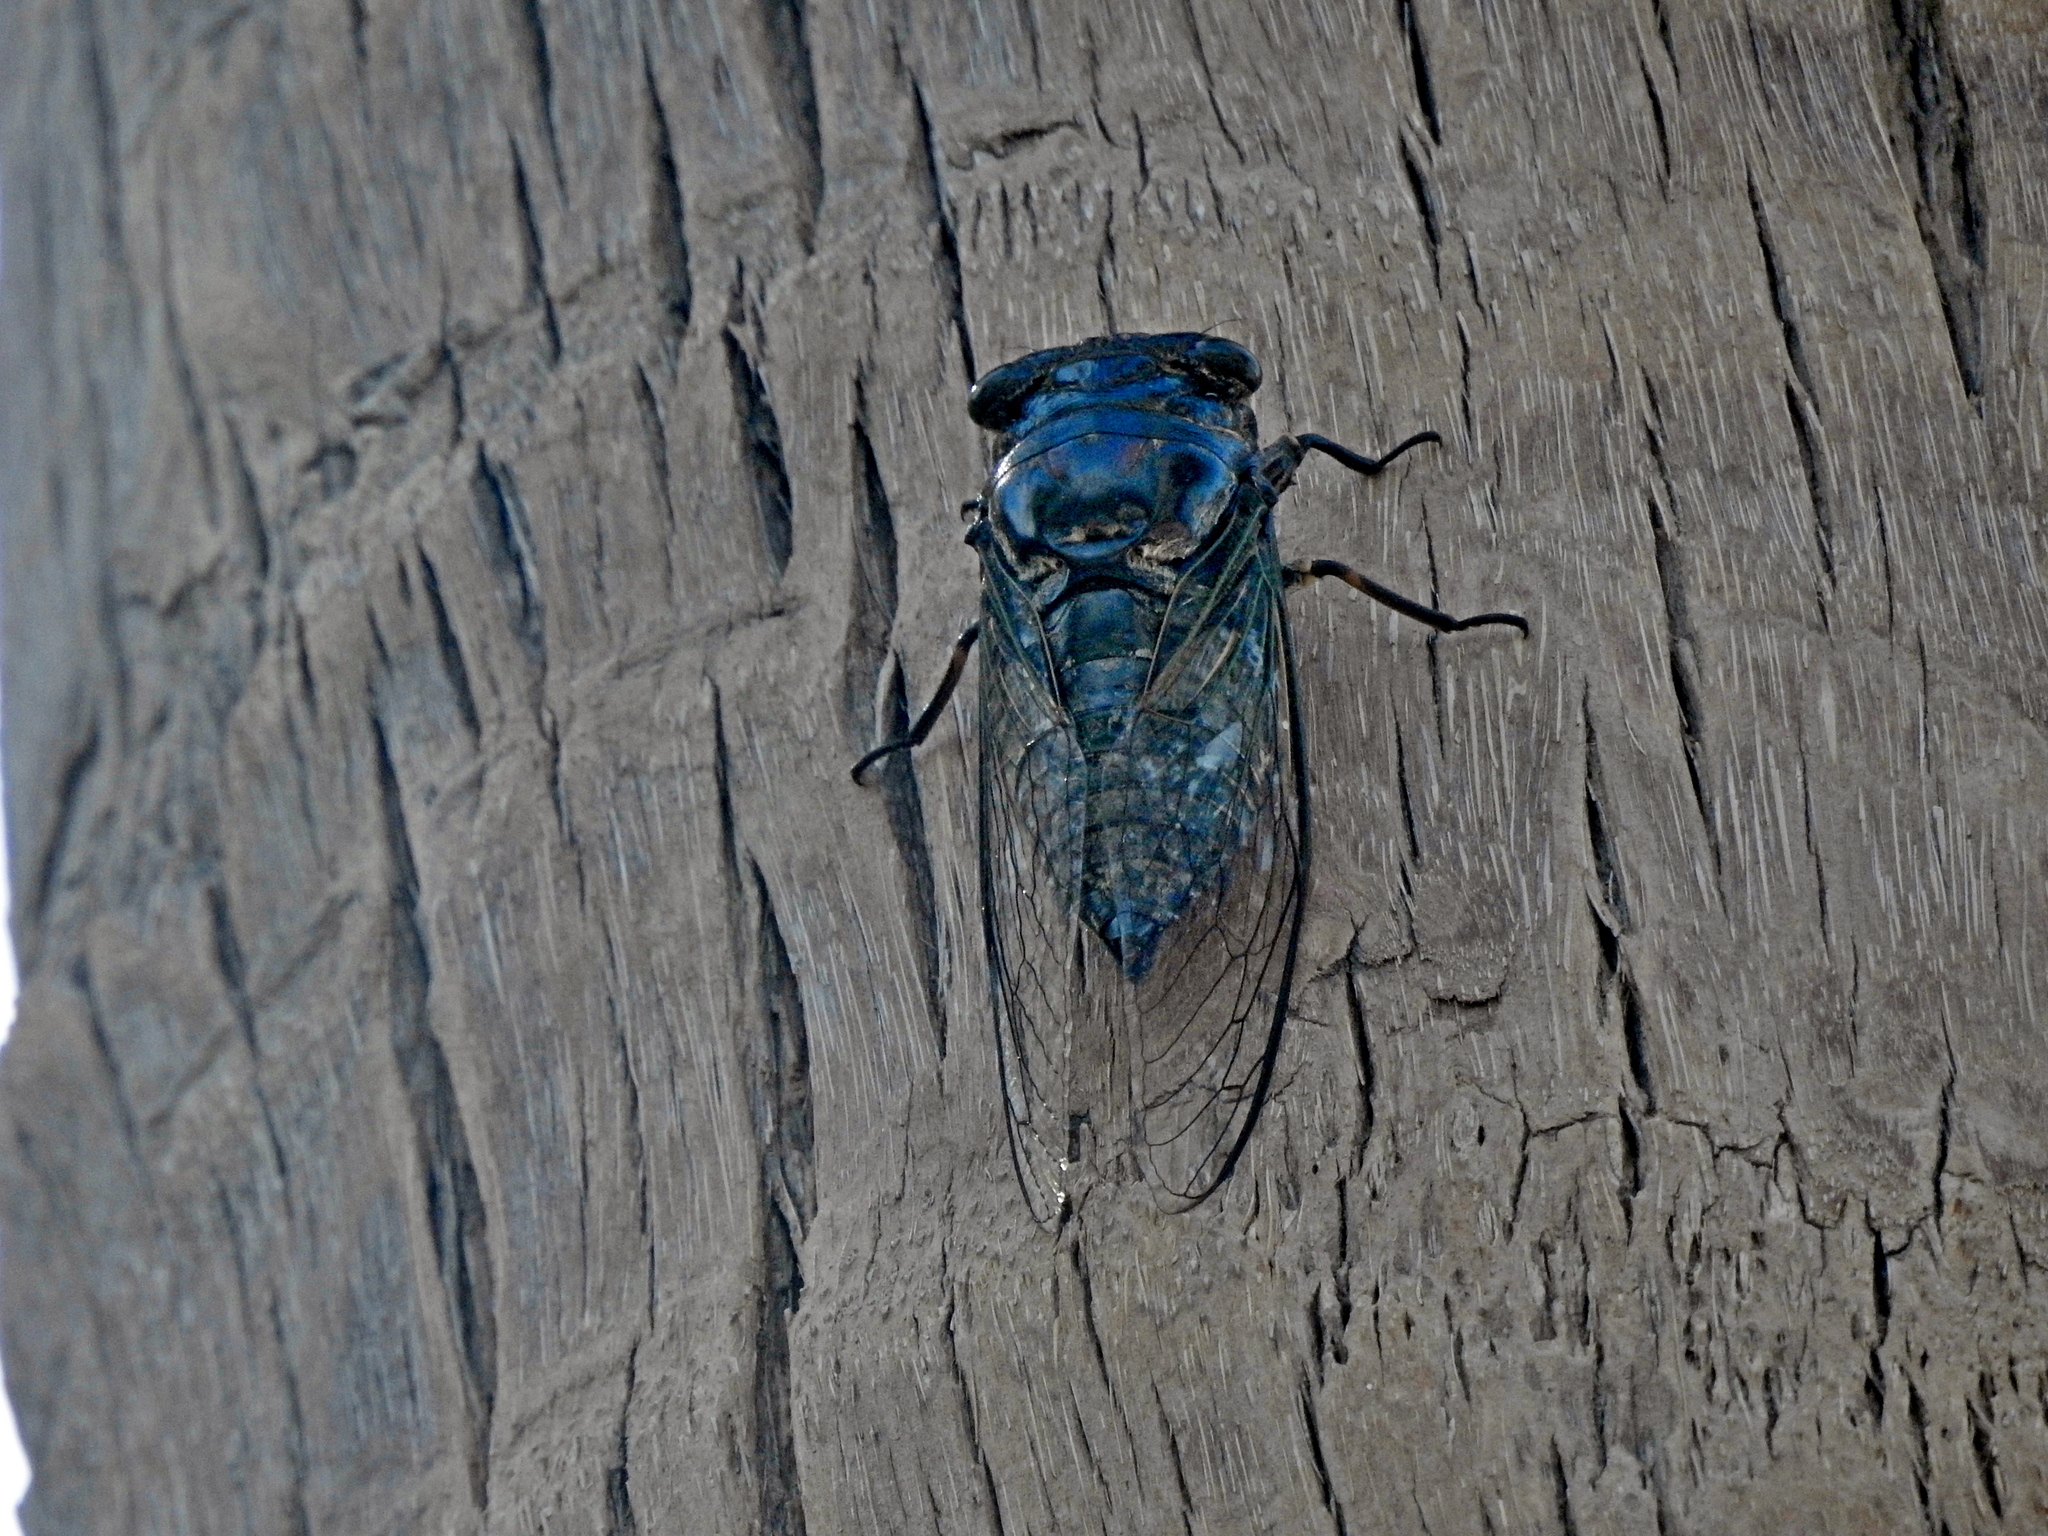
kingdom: Animalia
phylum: Arthropoda
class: Insecta
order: Hemiptera
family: Cicadidae
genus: Cryptotympana
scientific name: Cryptotympana takasagona
